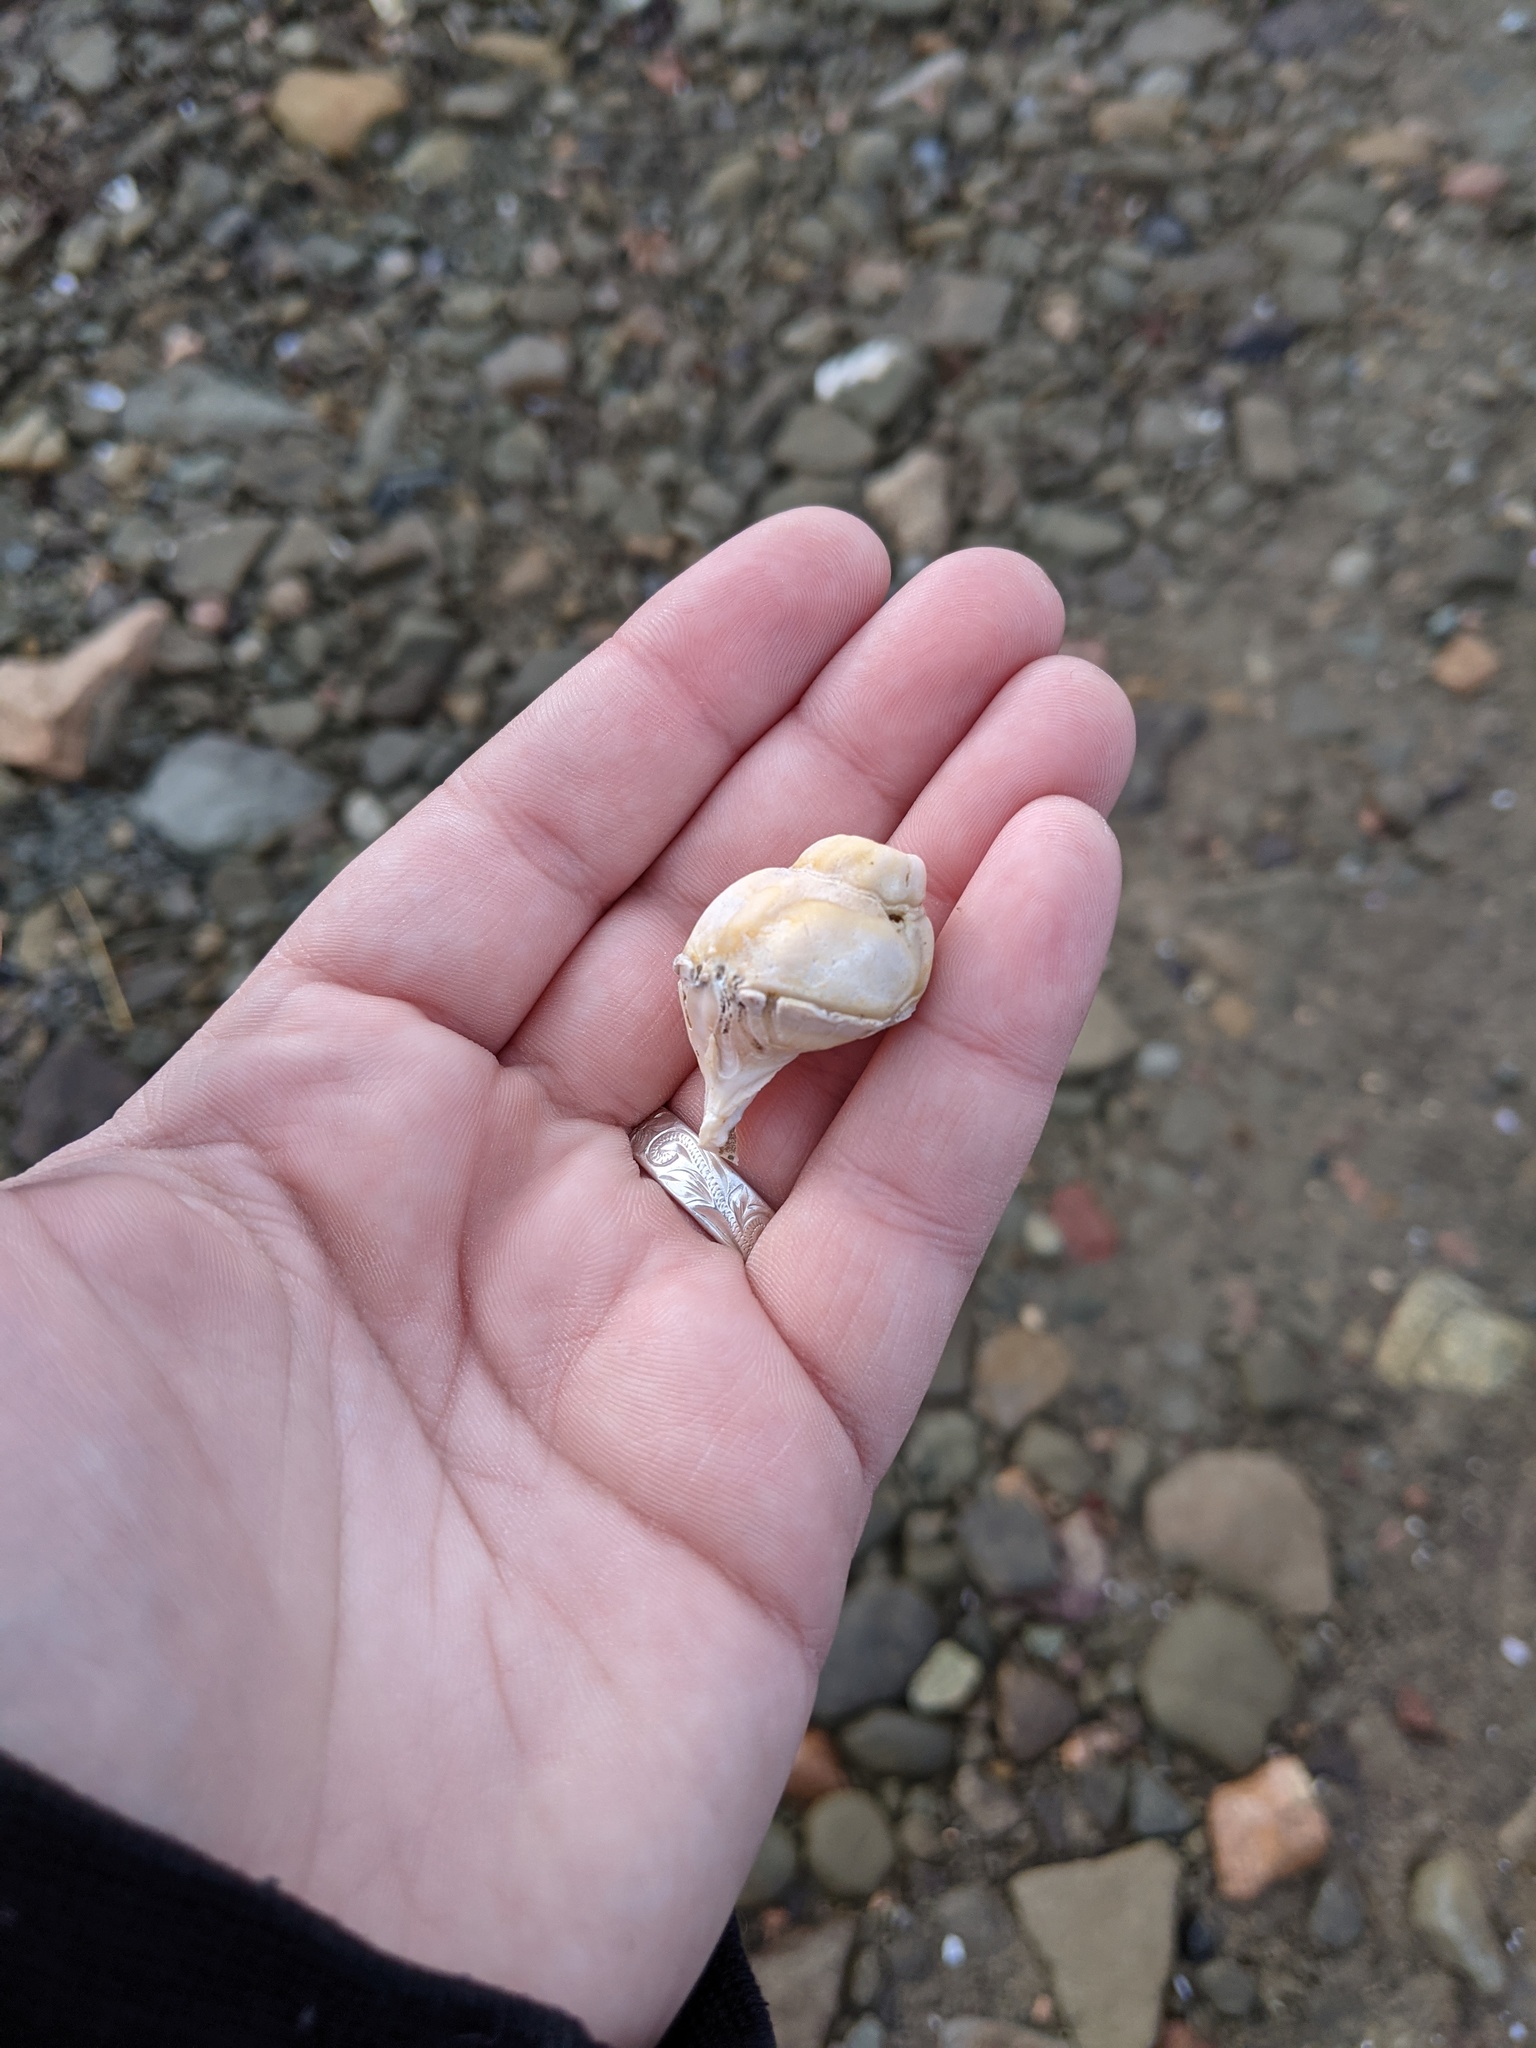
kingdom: Animalia
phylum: Mollusca
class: Gastropoda
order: Neogastropoda
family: Buccinidae
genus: Buccinum
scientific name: Buccinum undatum
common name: Common whelk
